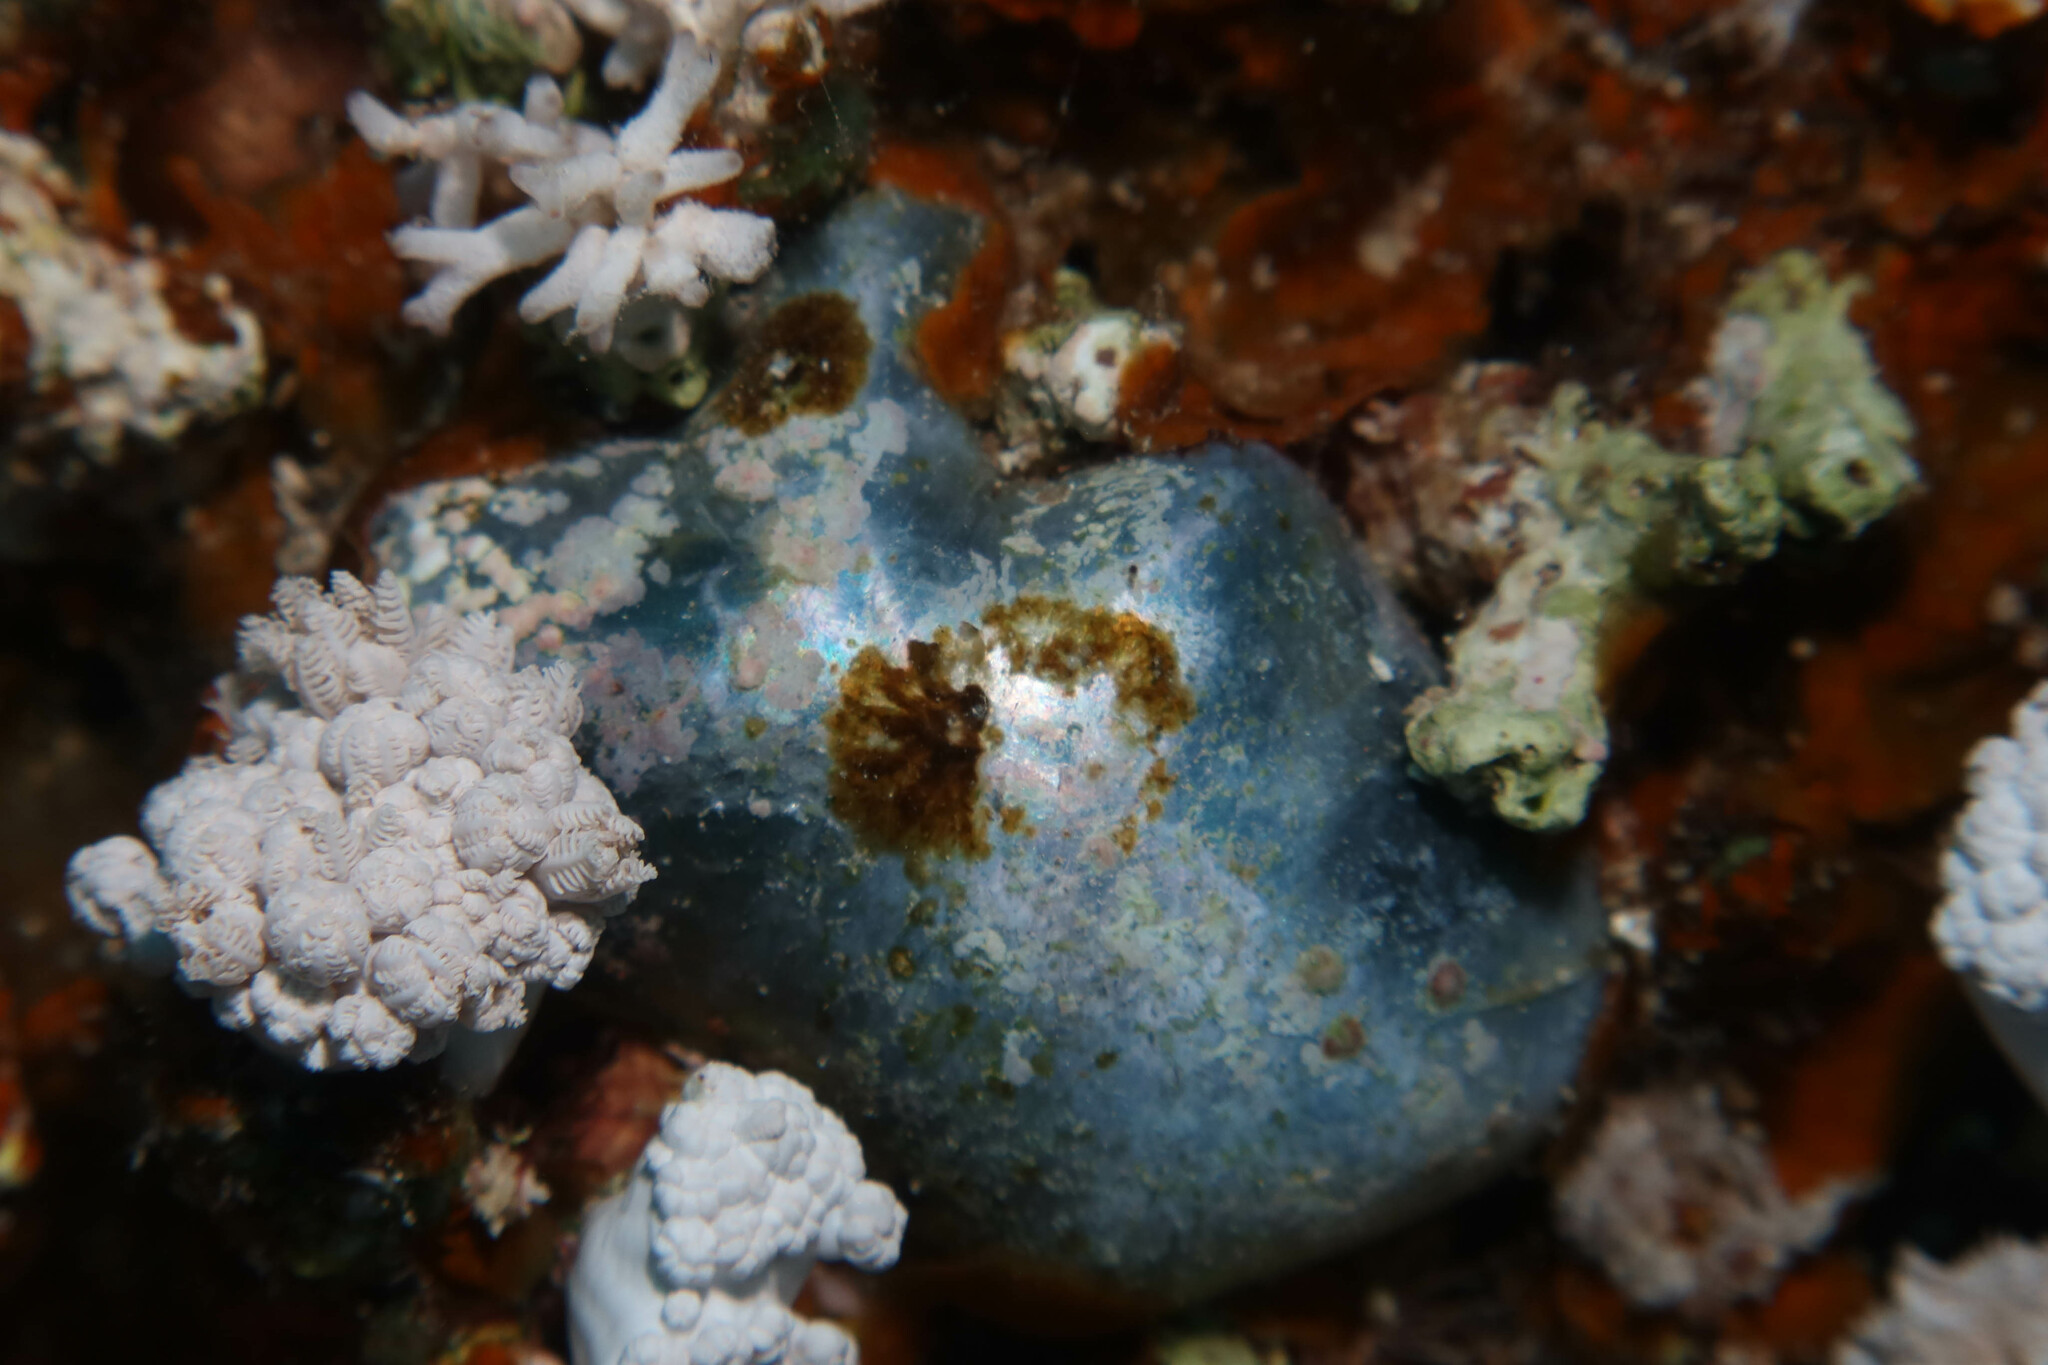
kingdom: Plantae
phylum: Chlorophyta
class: Ulvophyceae
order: Siphonocladales
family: Valoniaceae
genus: Valonia
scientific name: Valonia ventricosa
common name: Sea pearl
